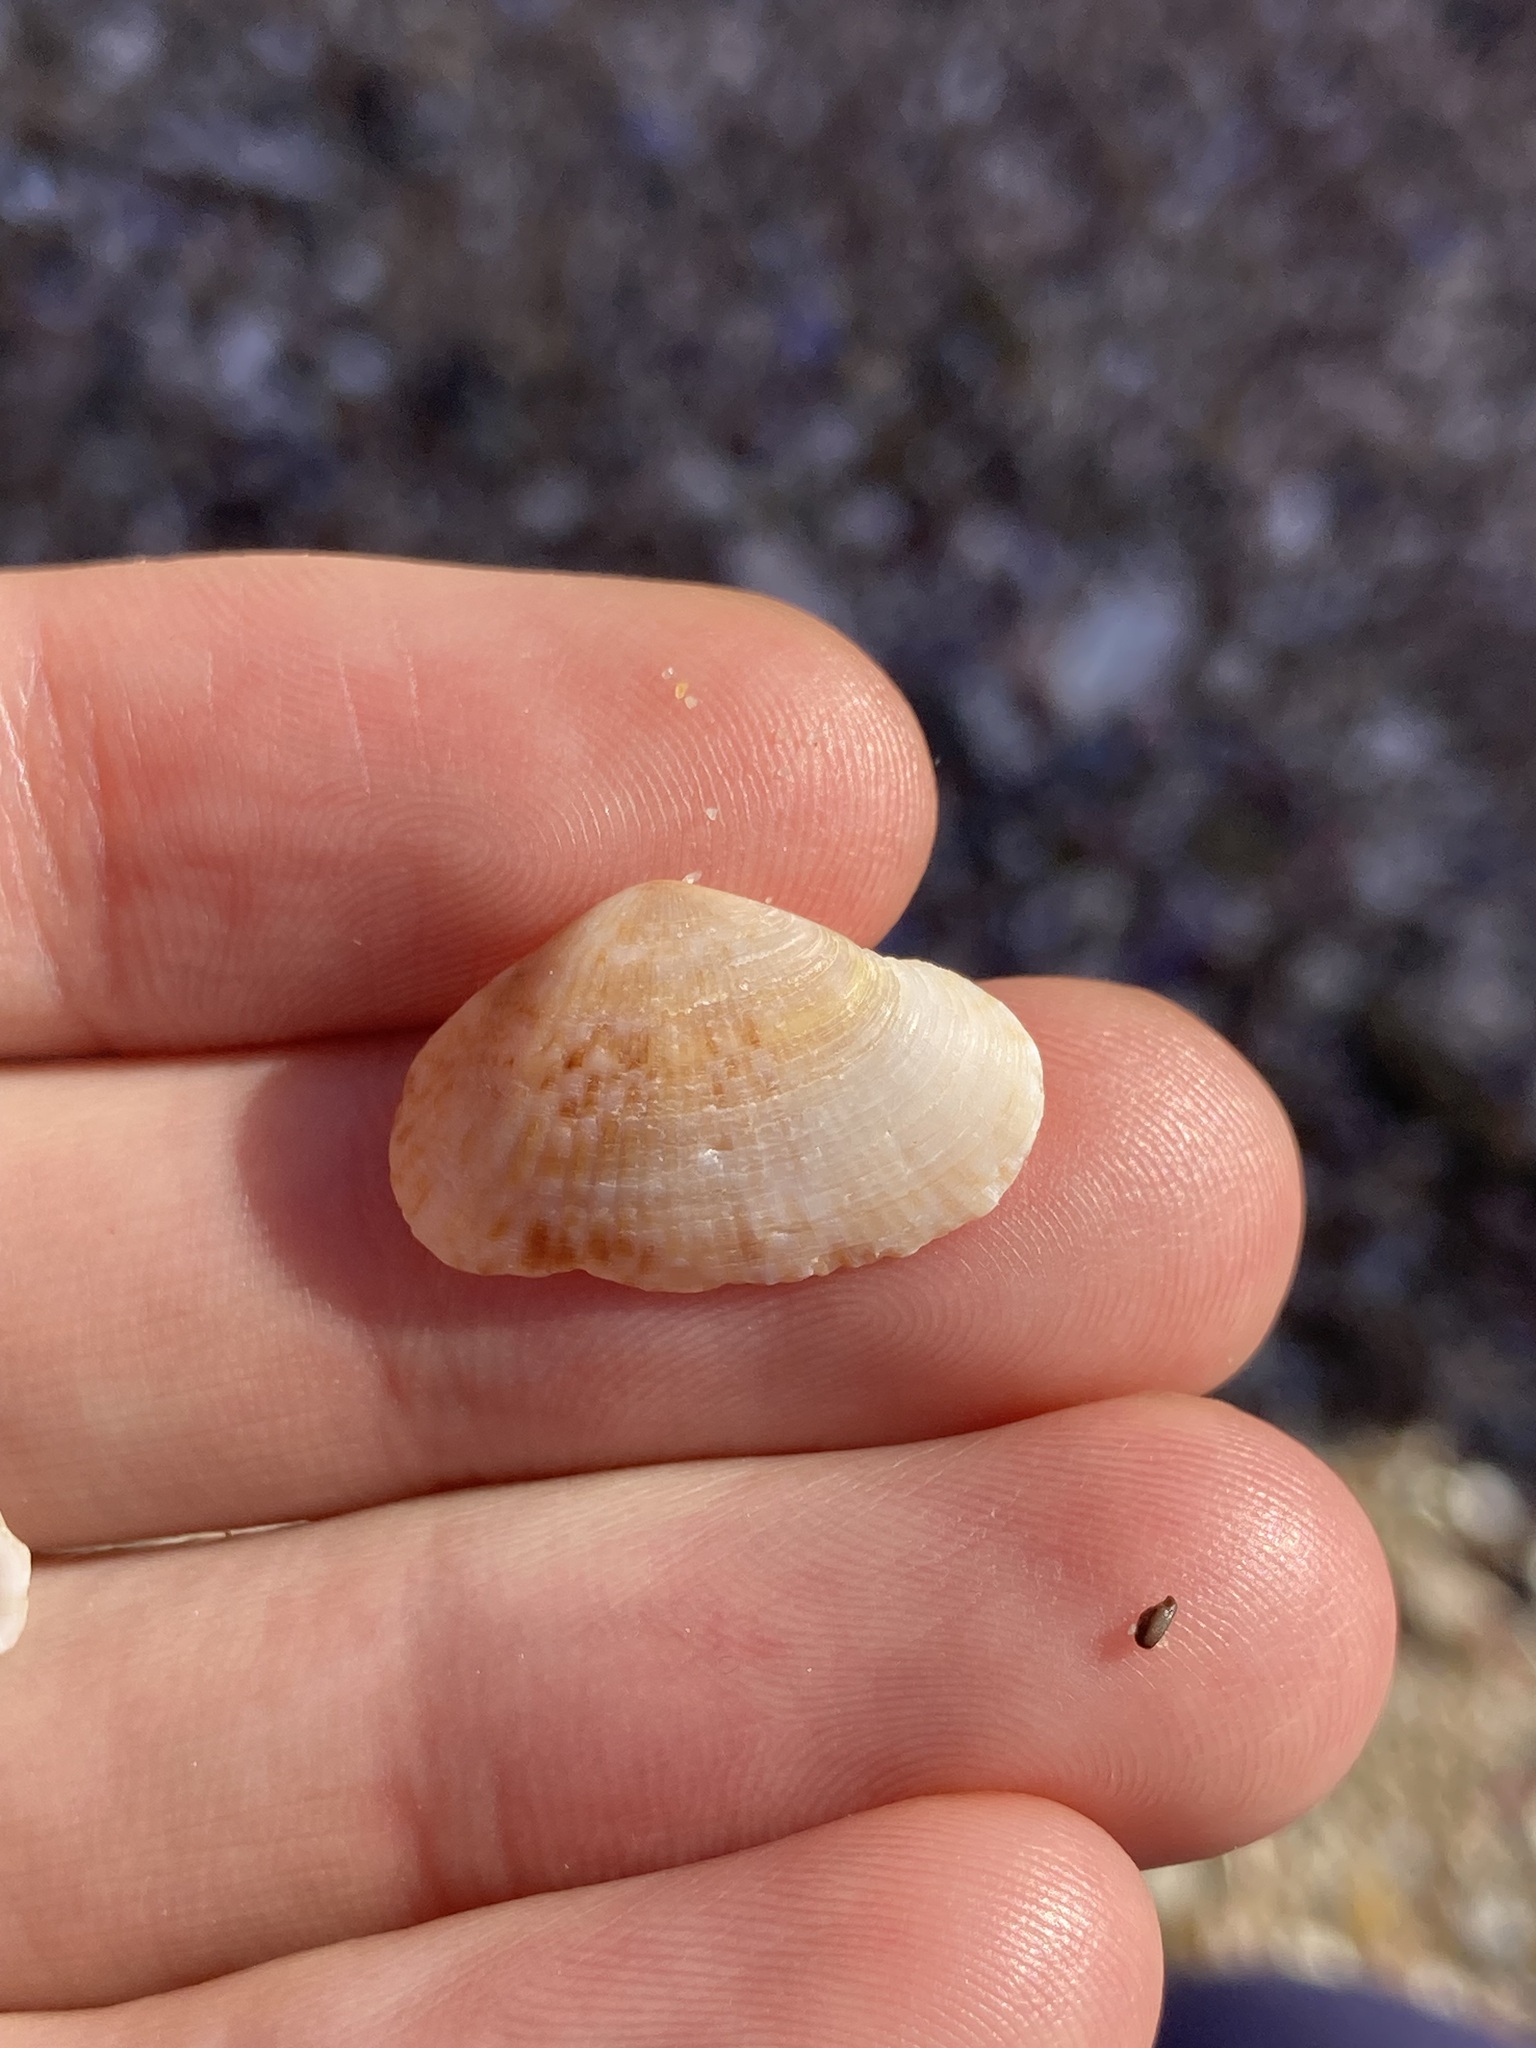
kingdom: Animalia
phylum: Mollusca
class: Bivalvia
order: Venerida
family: Hemidonacidae
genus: Hemidonax
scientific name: Hemidonax dactylus
